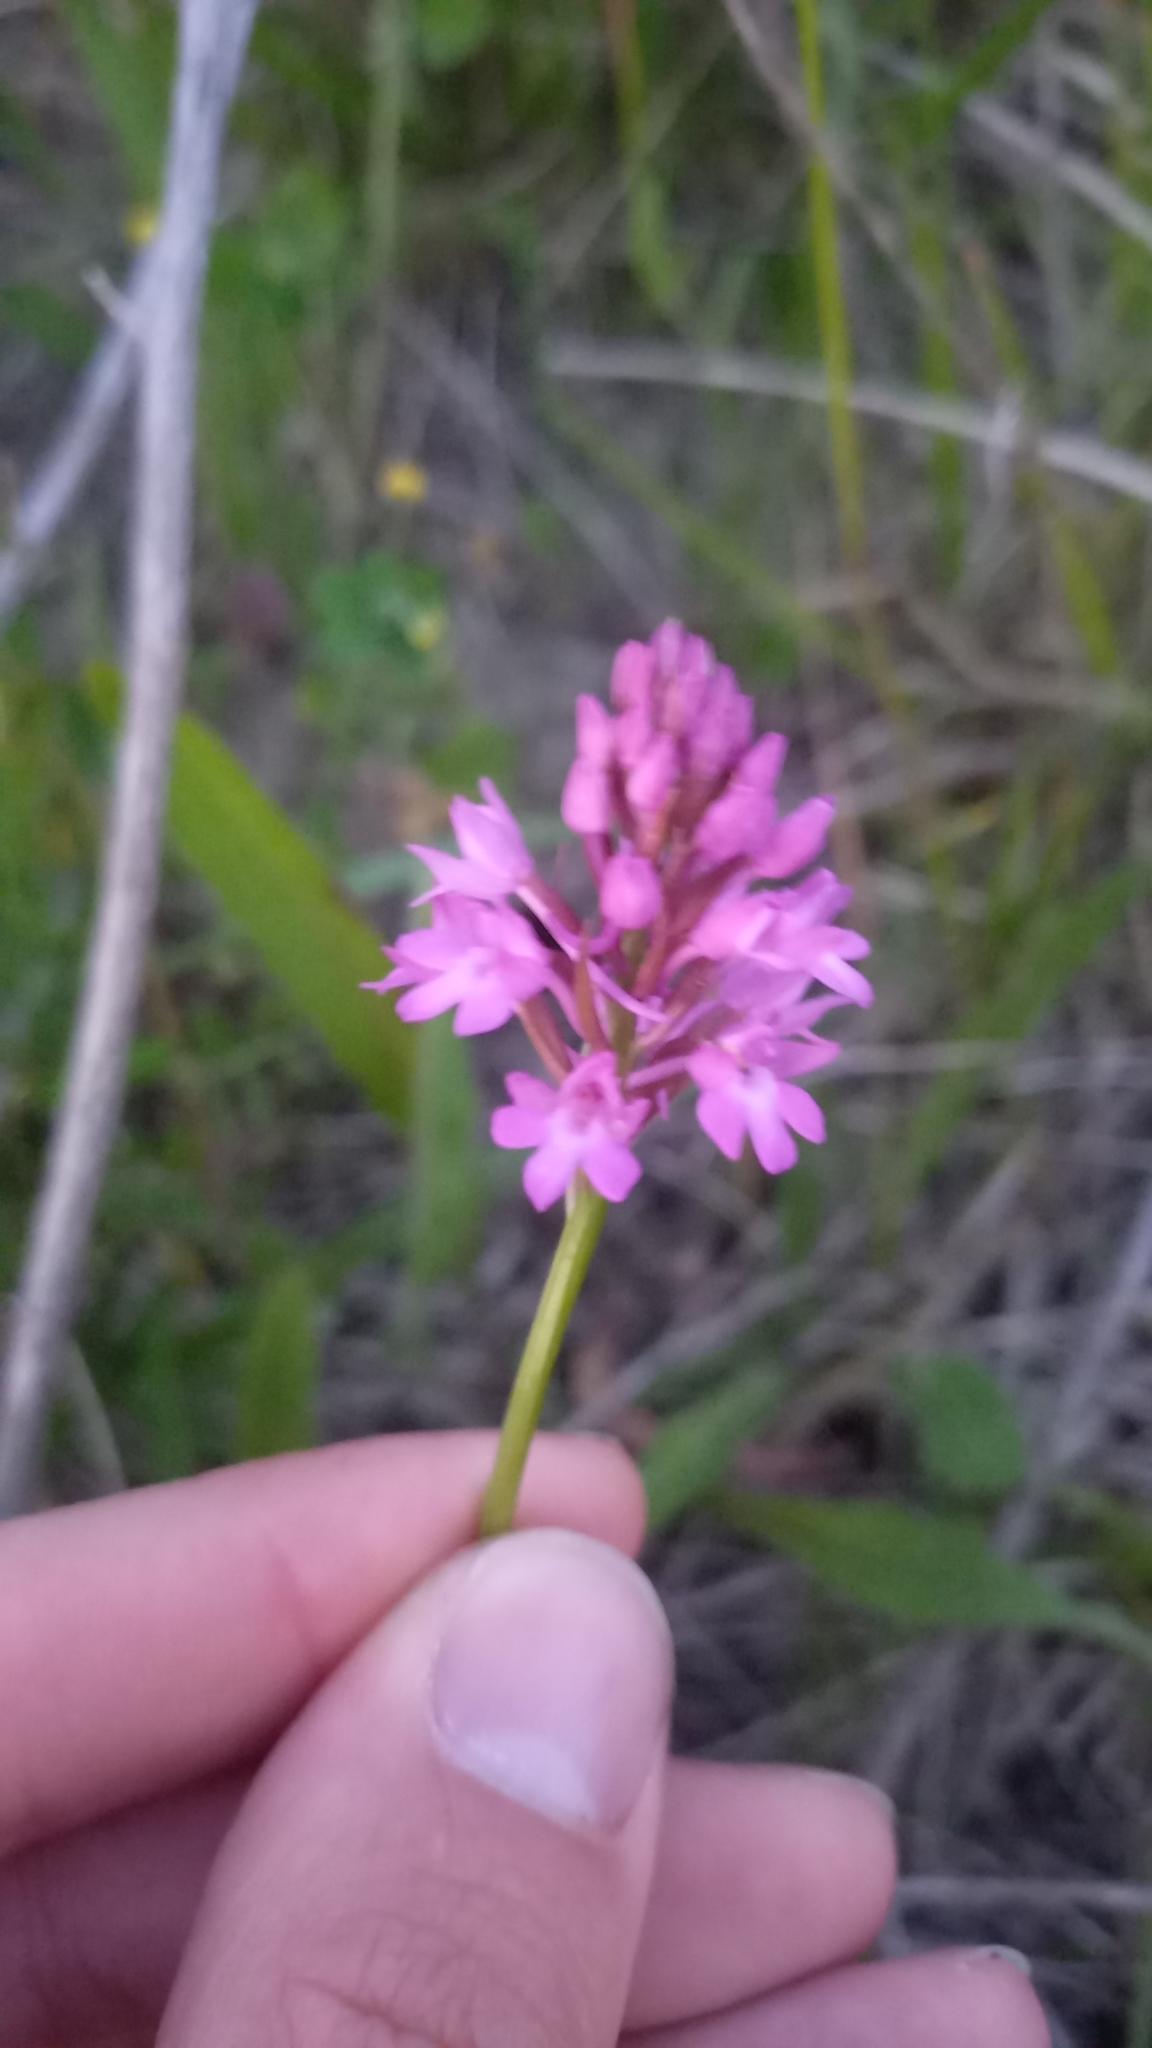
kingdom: Plantae
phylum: Tracheophyta
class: Liliopsida
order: Asparagales
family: Orchidaceae
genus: Anacamptis
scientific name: Anacamptis pyramidalis
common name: Pyramidal orchid
